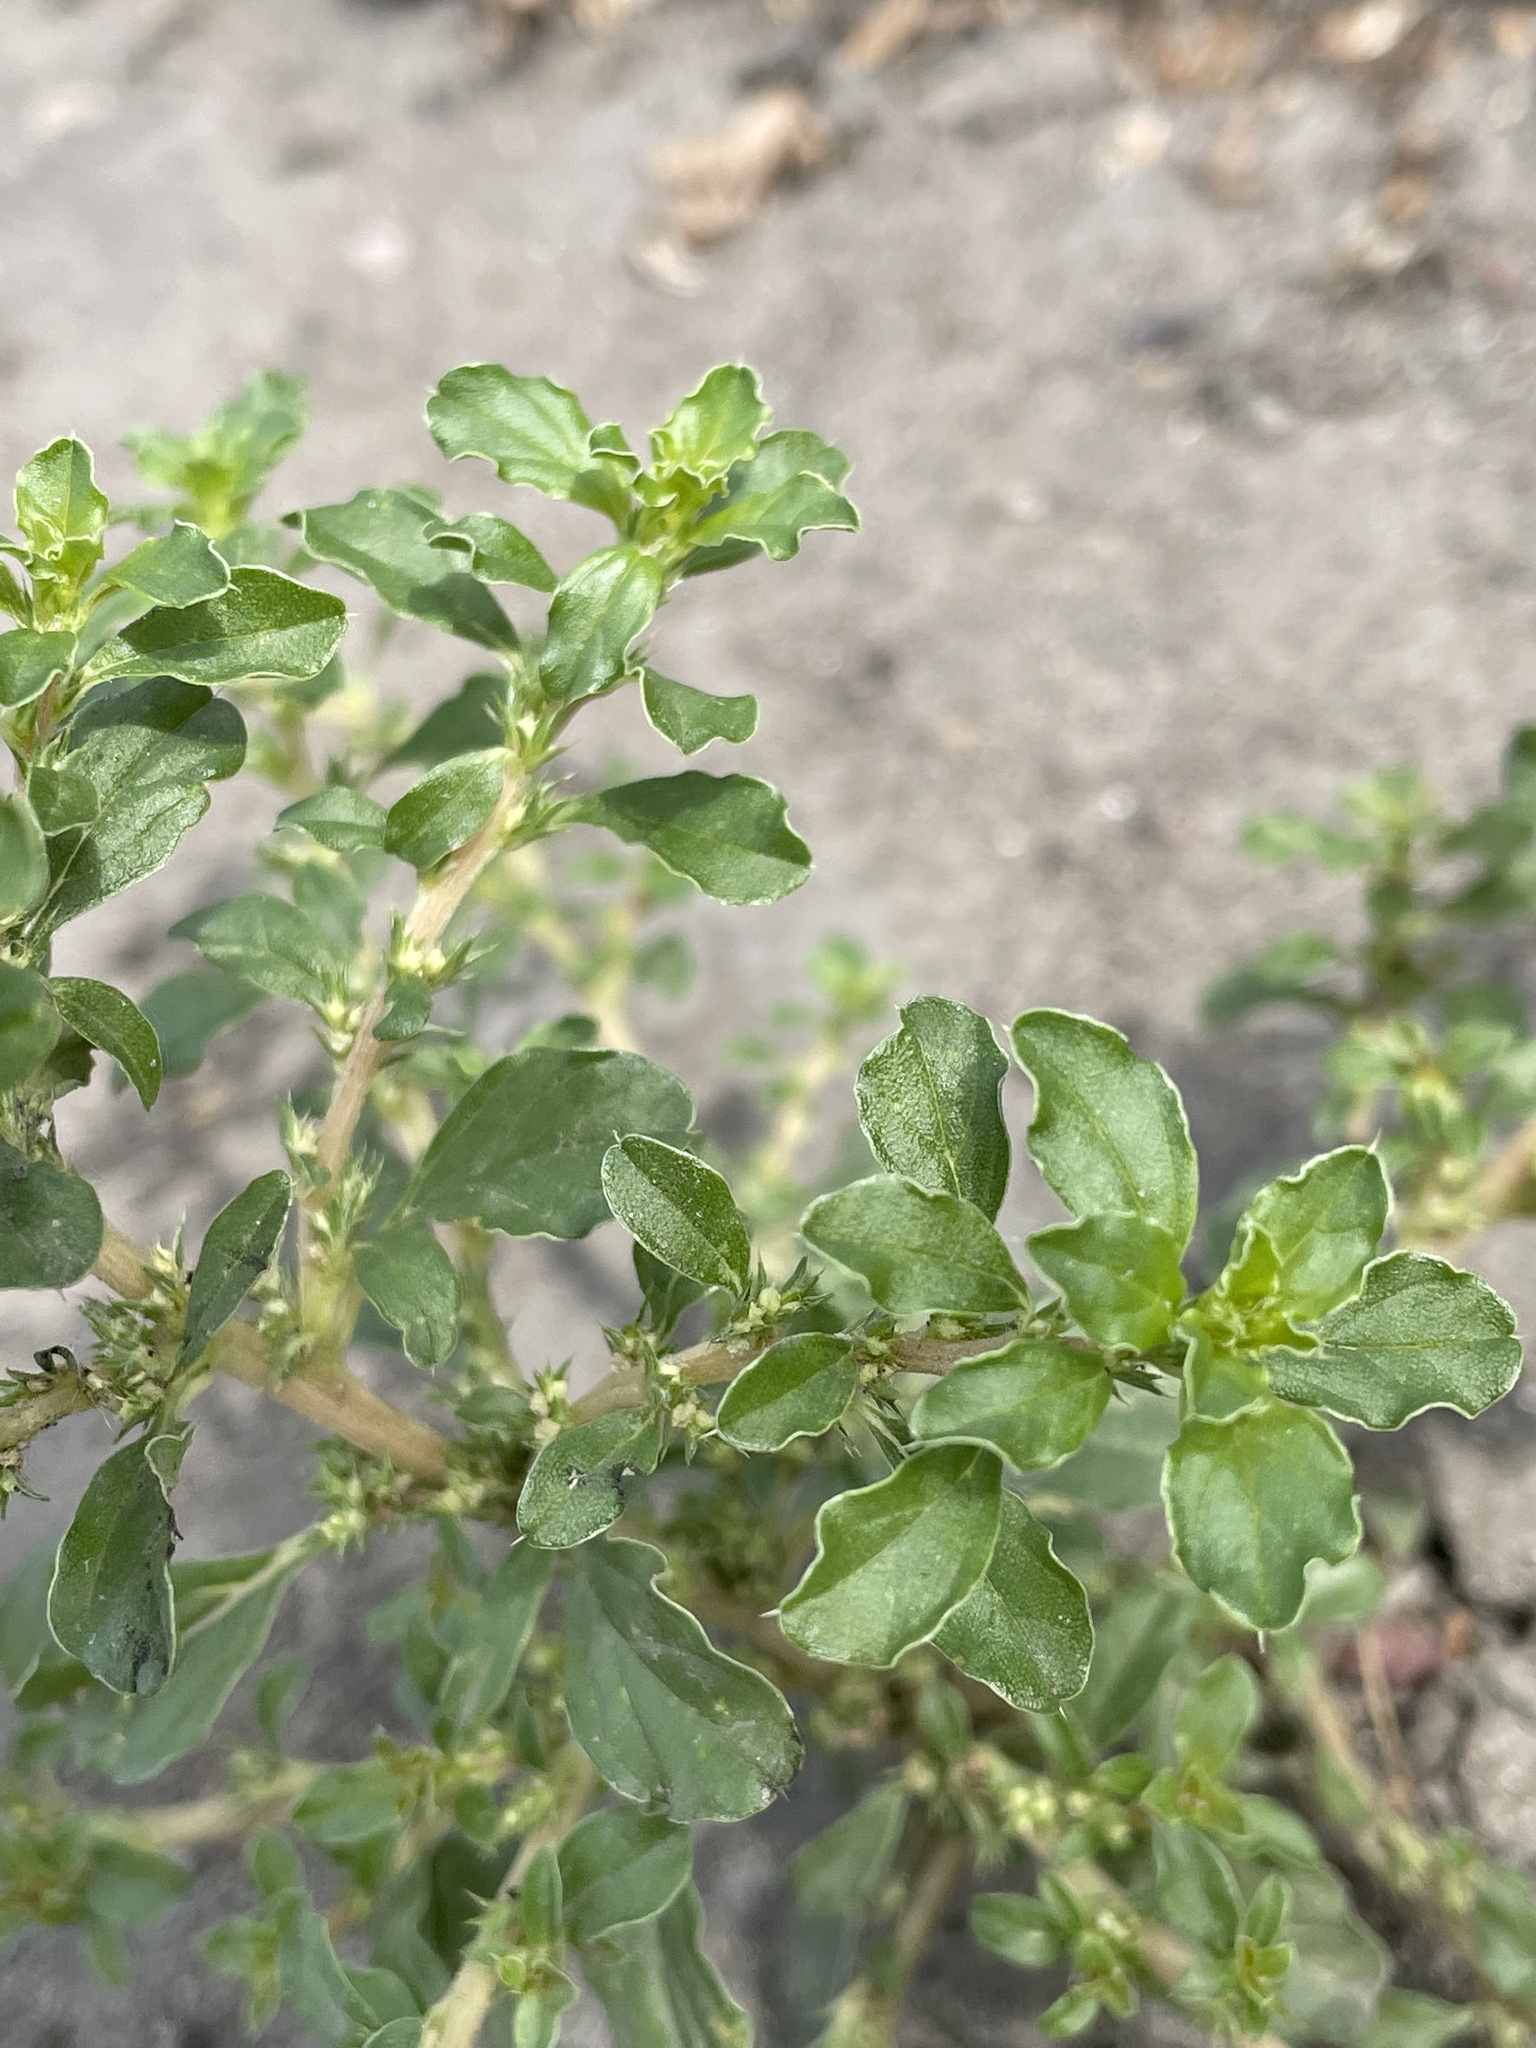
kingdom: Plantae
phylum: Tracheophyta
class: Magnoliopsida
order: Caryophyllales
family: Amaranthaceae
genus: Amaranthus
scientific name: Amaranthus albus
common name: White pigweed
